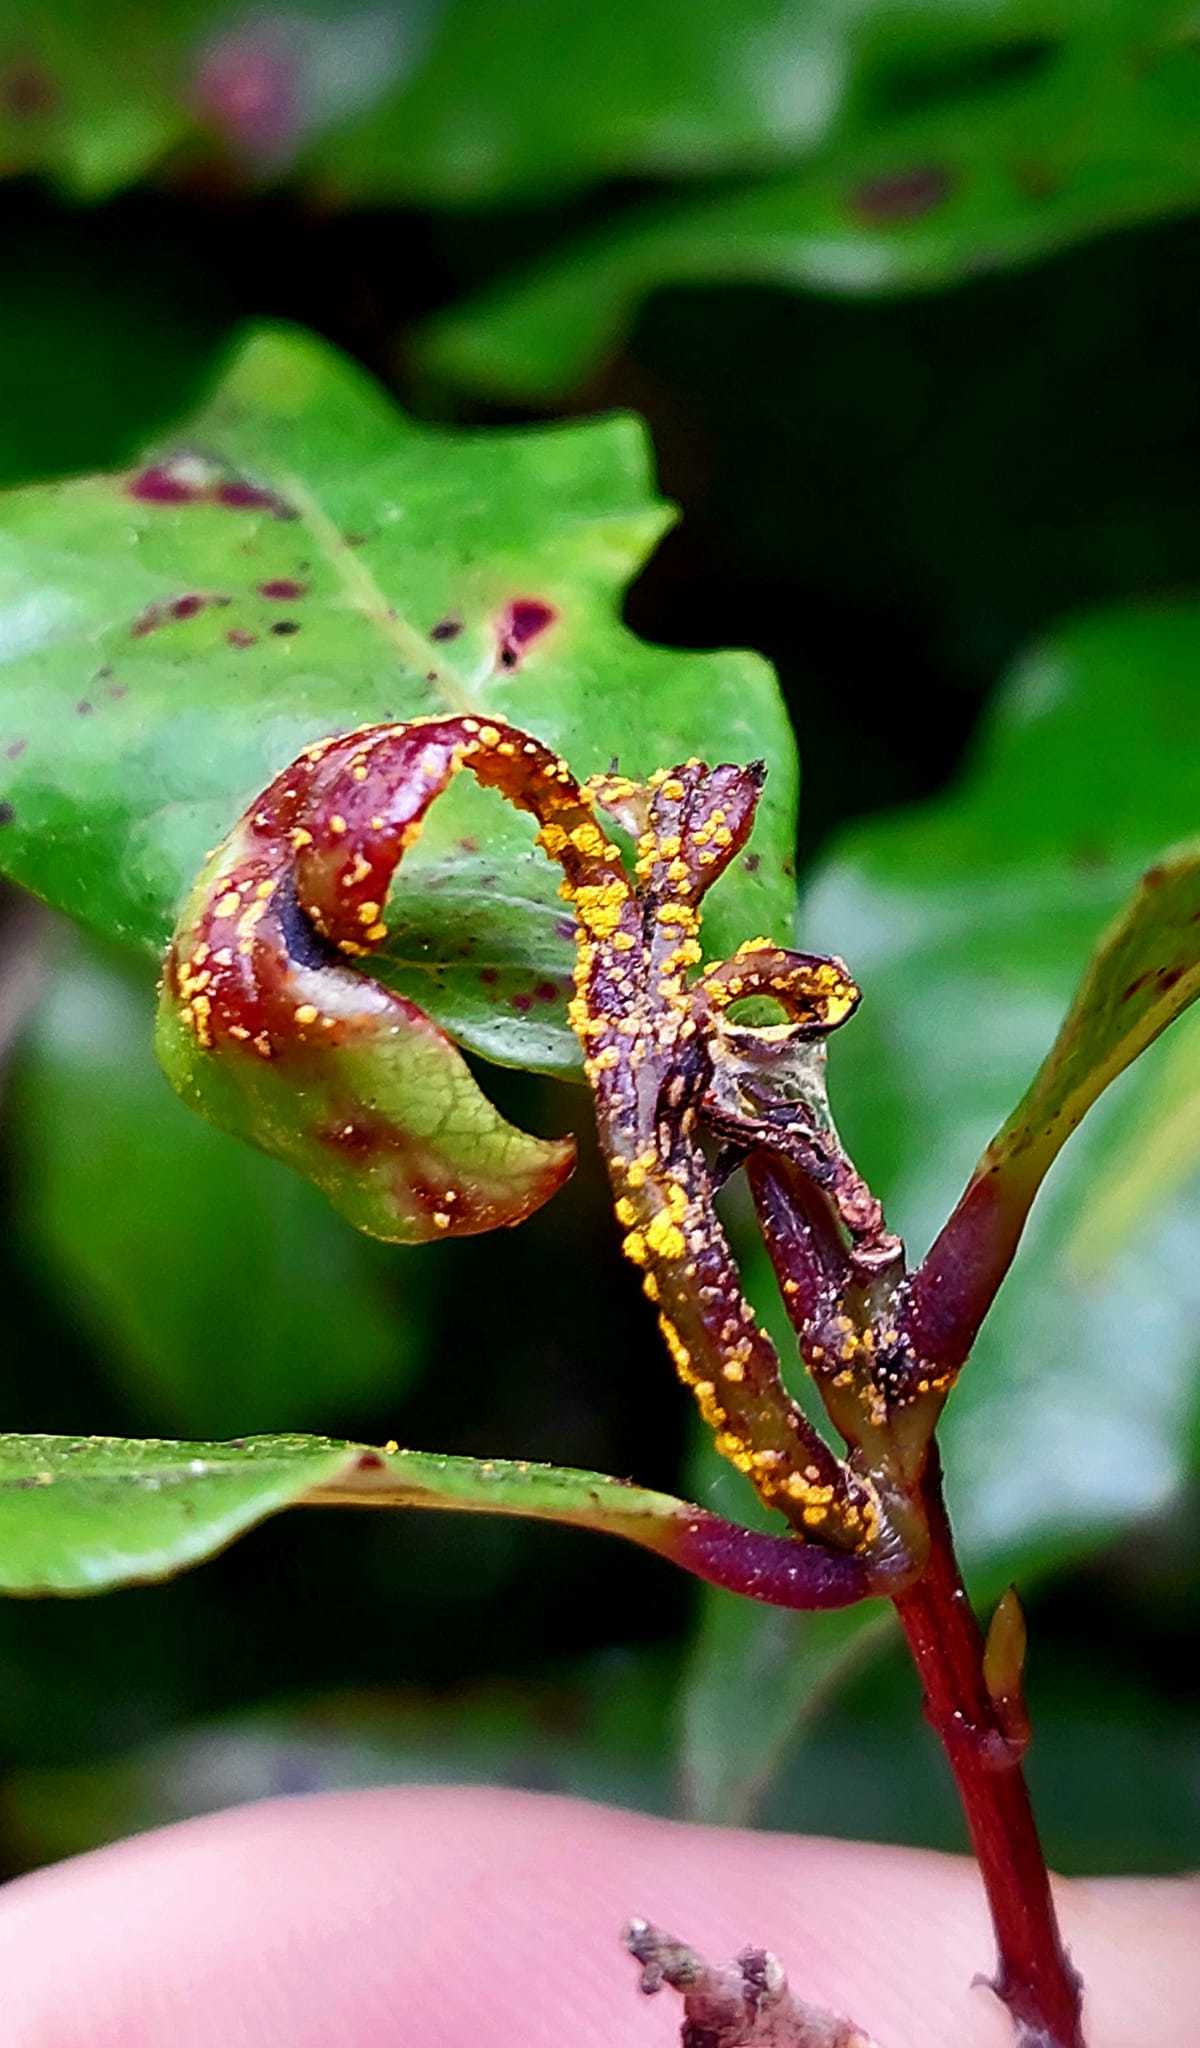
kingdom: Fungi
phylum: Basidiomycota
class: Pucciniomycetes
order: Pucciniales
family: Sphaerophragmiaceae
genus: Austropuccinia
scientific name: Austropuccinia psidii
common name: Myrtle rust
